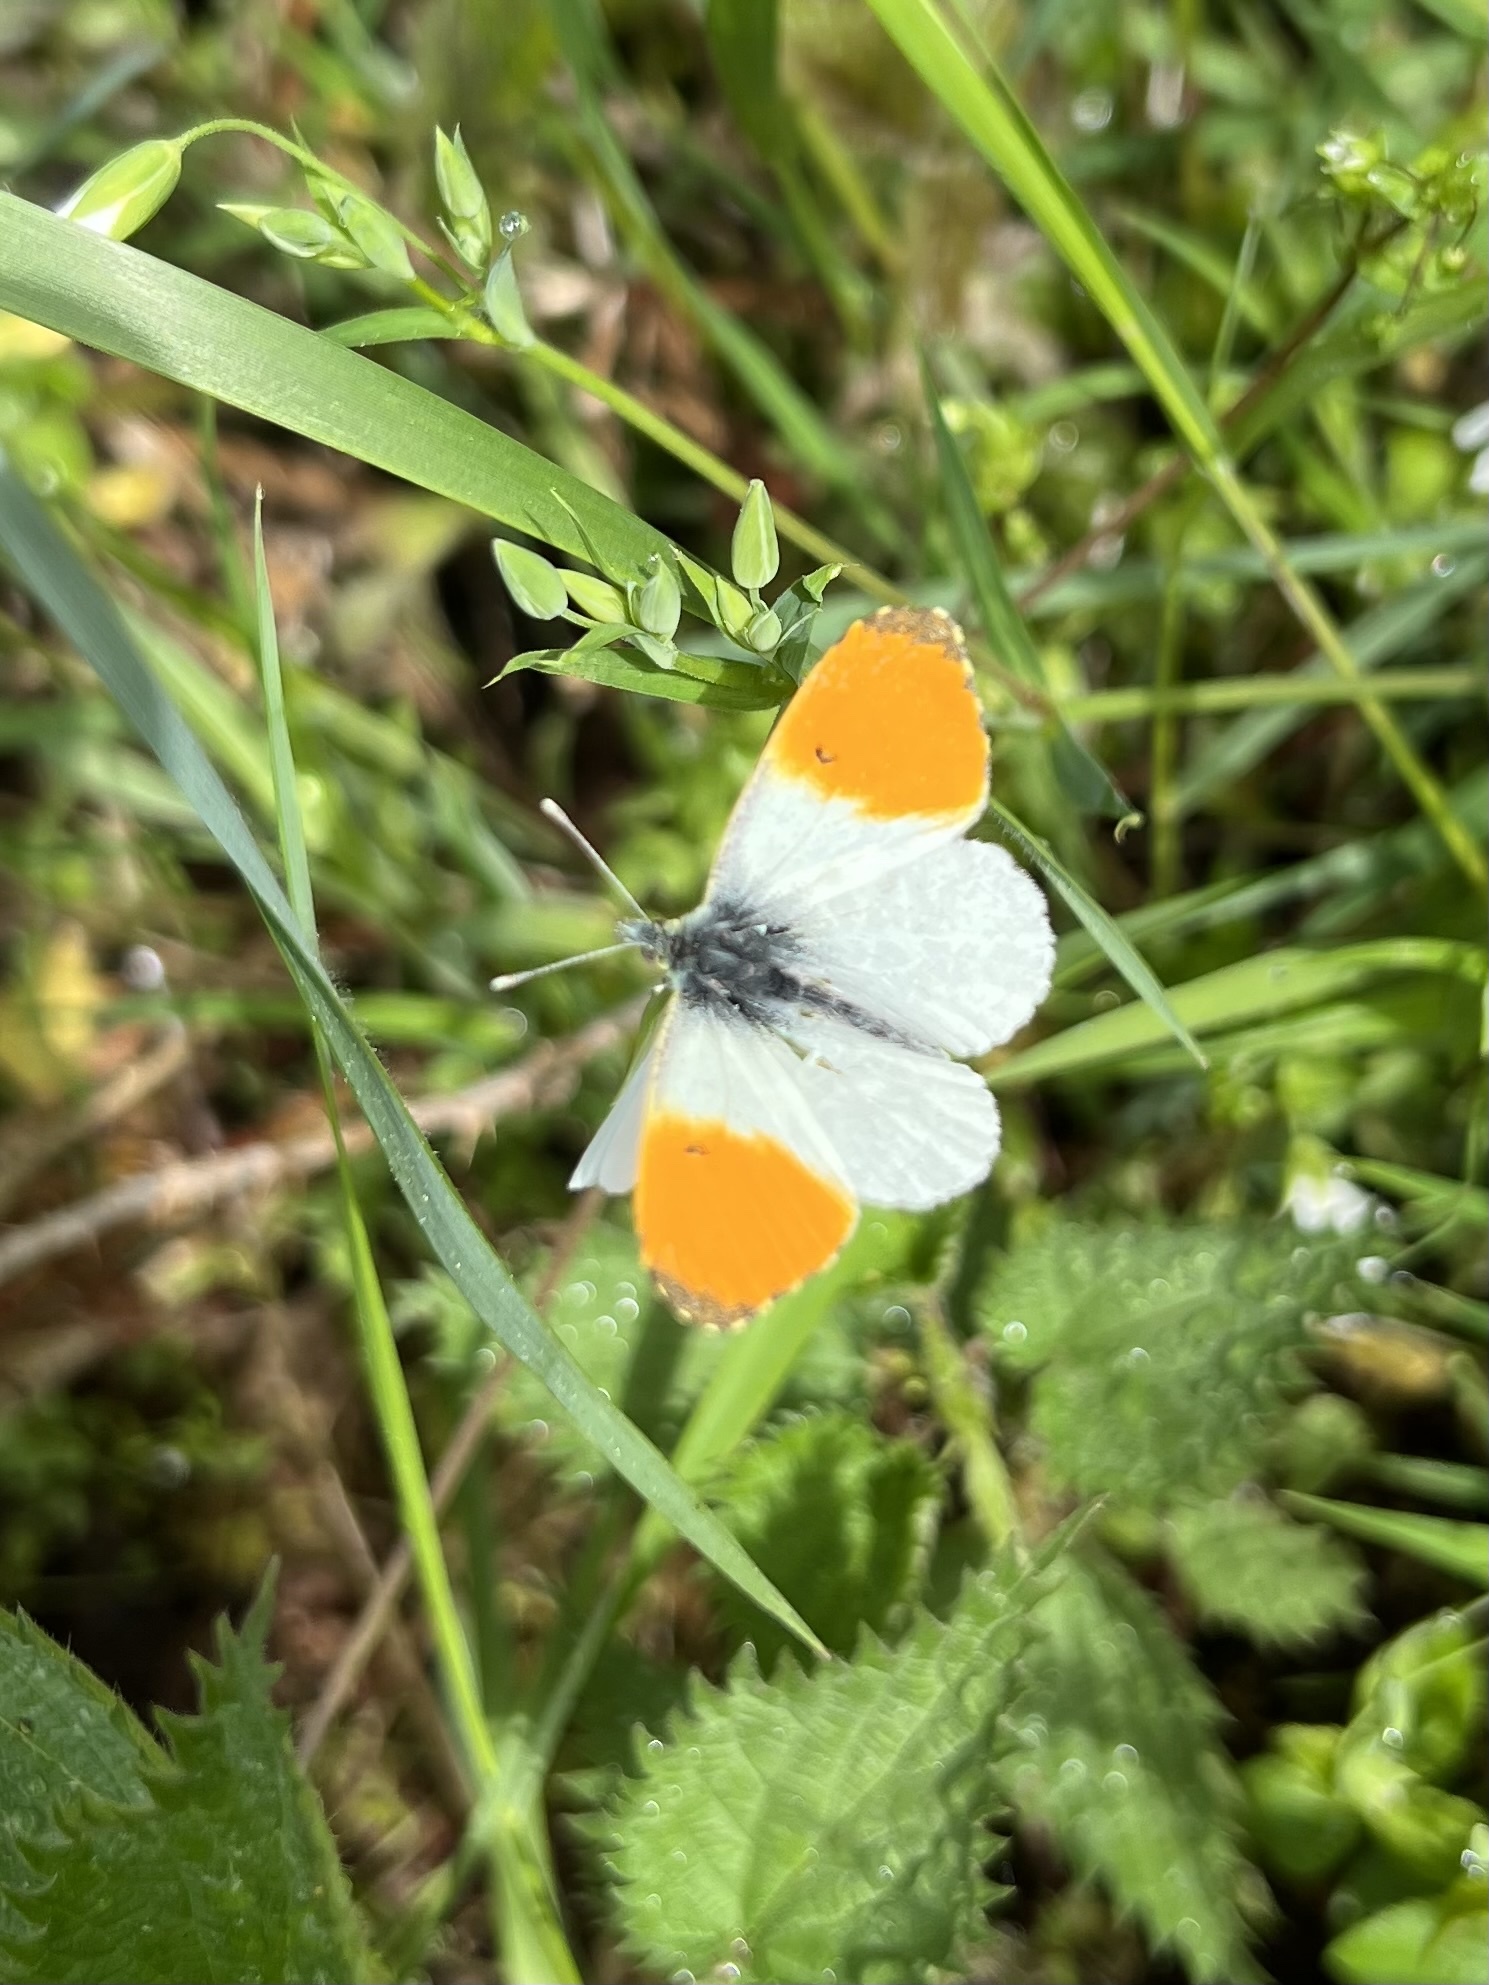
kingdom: Animalia
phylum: Arthropoda
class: Insecta
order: Lepidoptera
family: Pieridae
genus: Anthocharis
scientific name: Anthocharis cardamines
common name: Orange-tip
